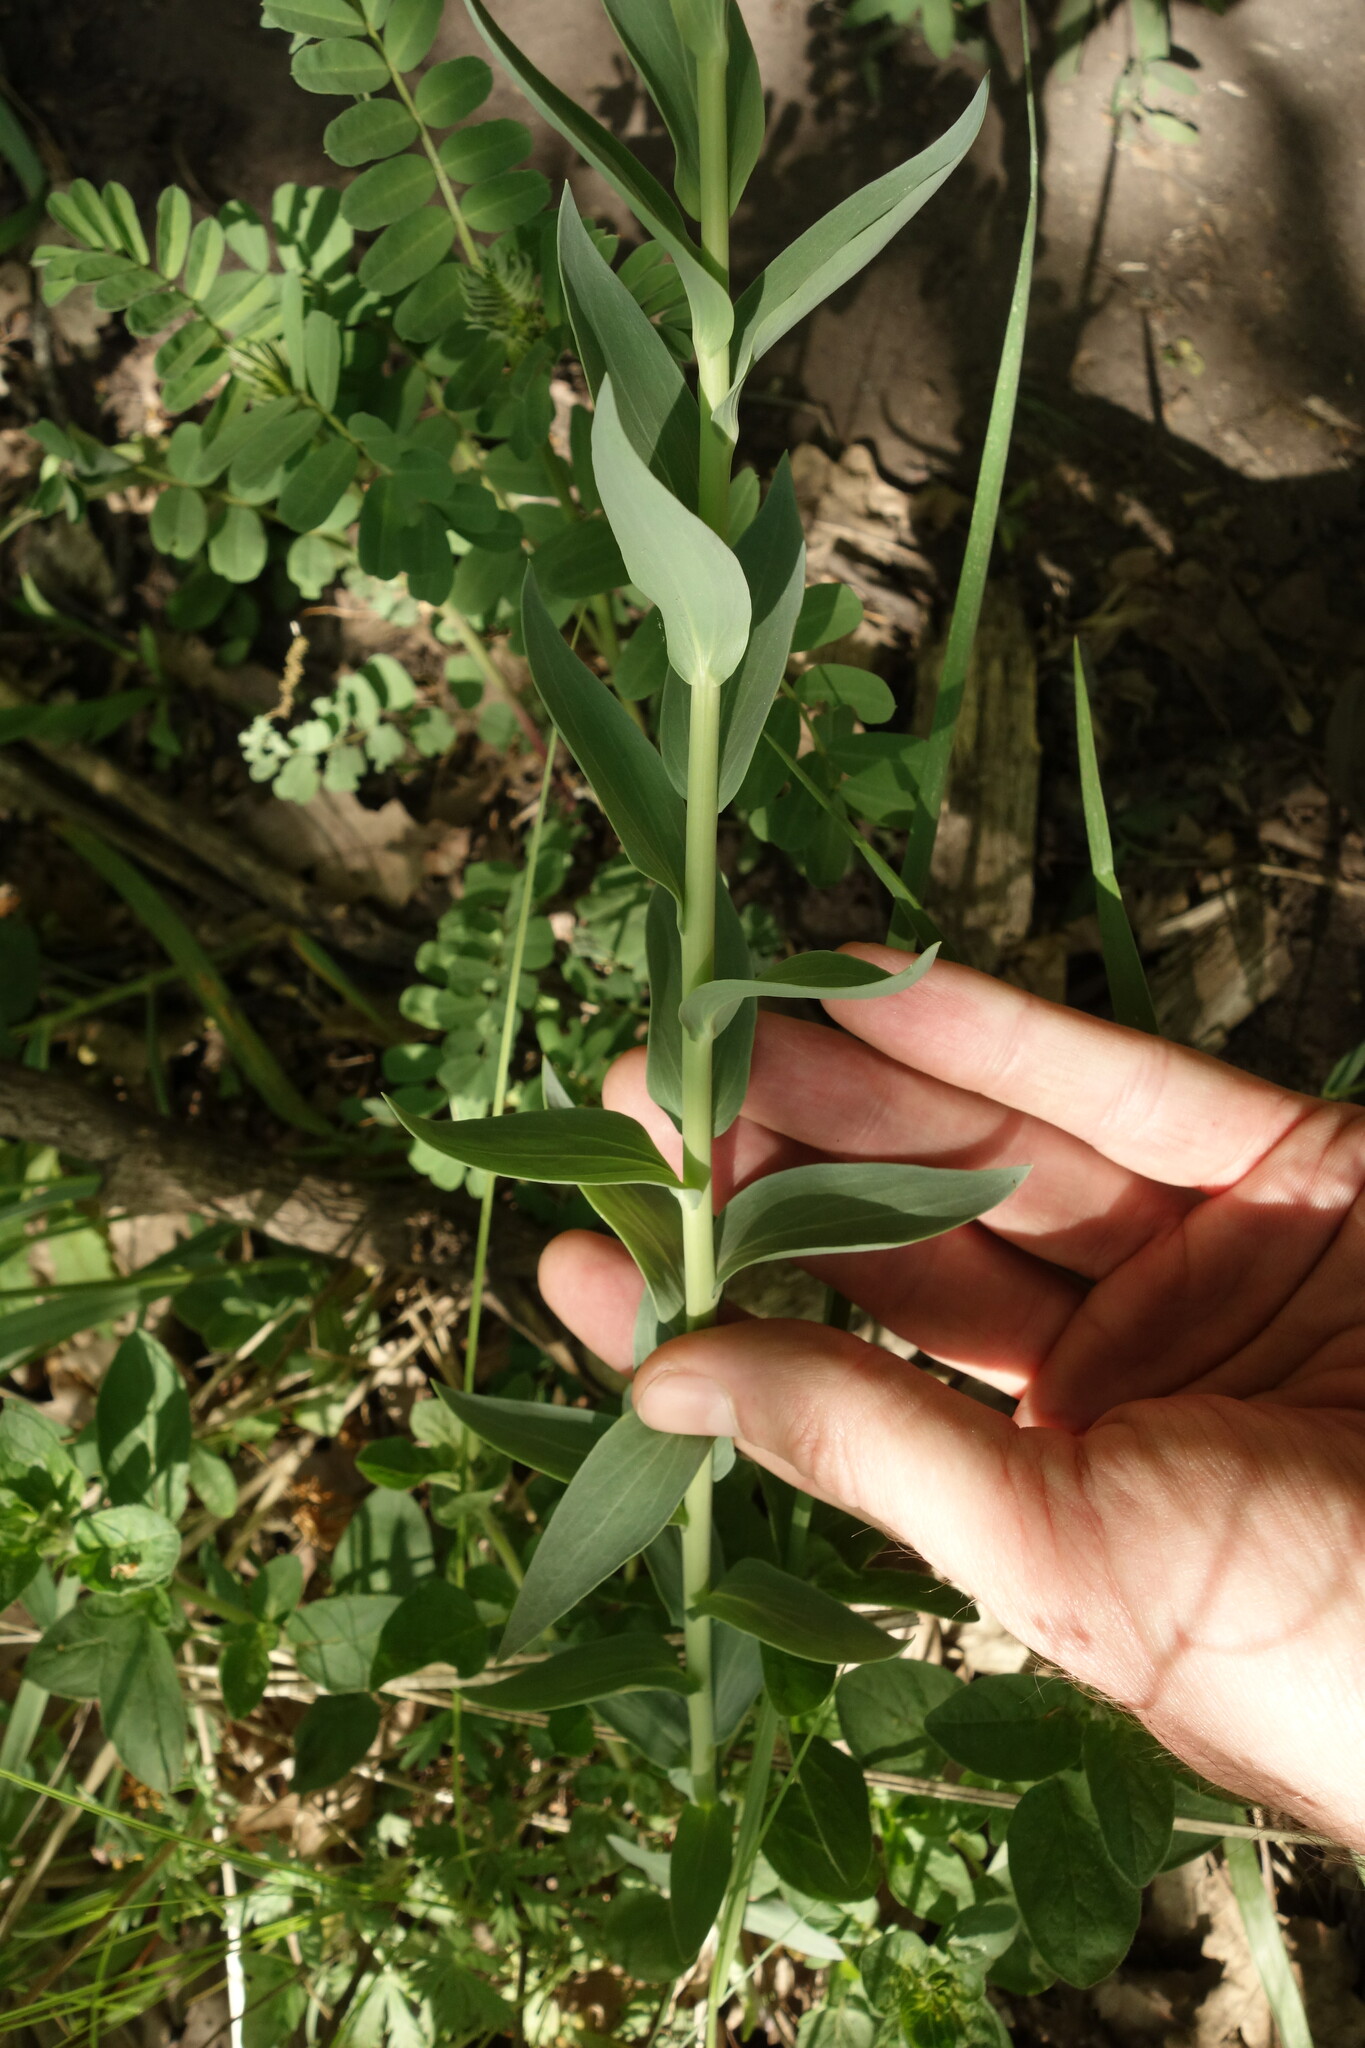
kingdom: Plantae
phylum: Tracheophyta
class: Magnoliopsida
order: Lamiales
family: Plantaginaceae
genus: Linaria
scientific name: Linaria genistifolia
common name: Broomleaf toadflax
